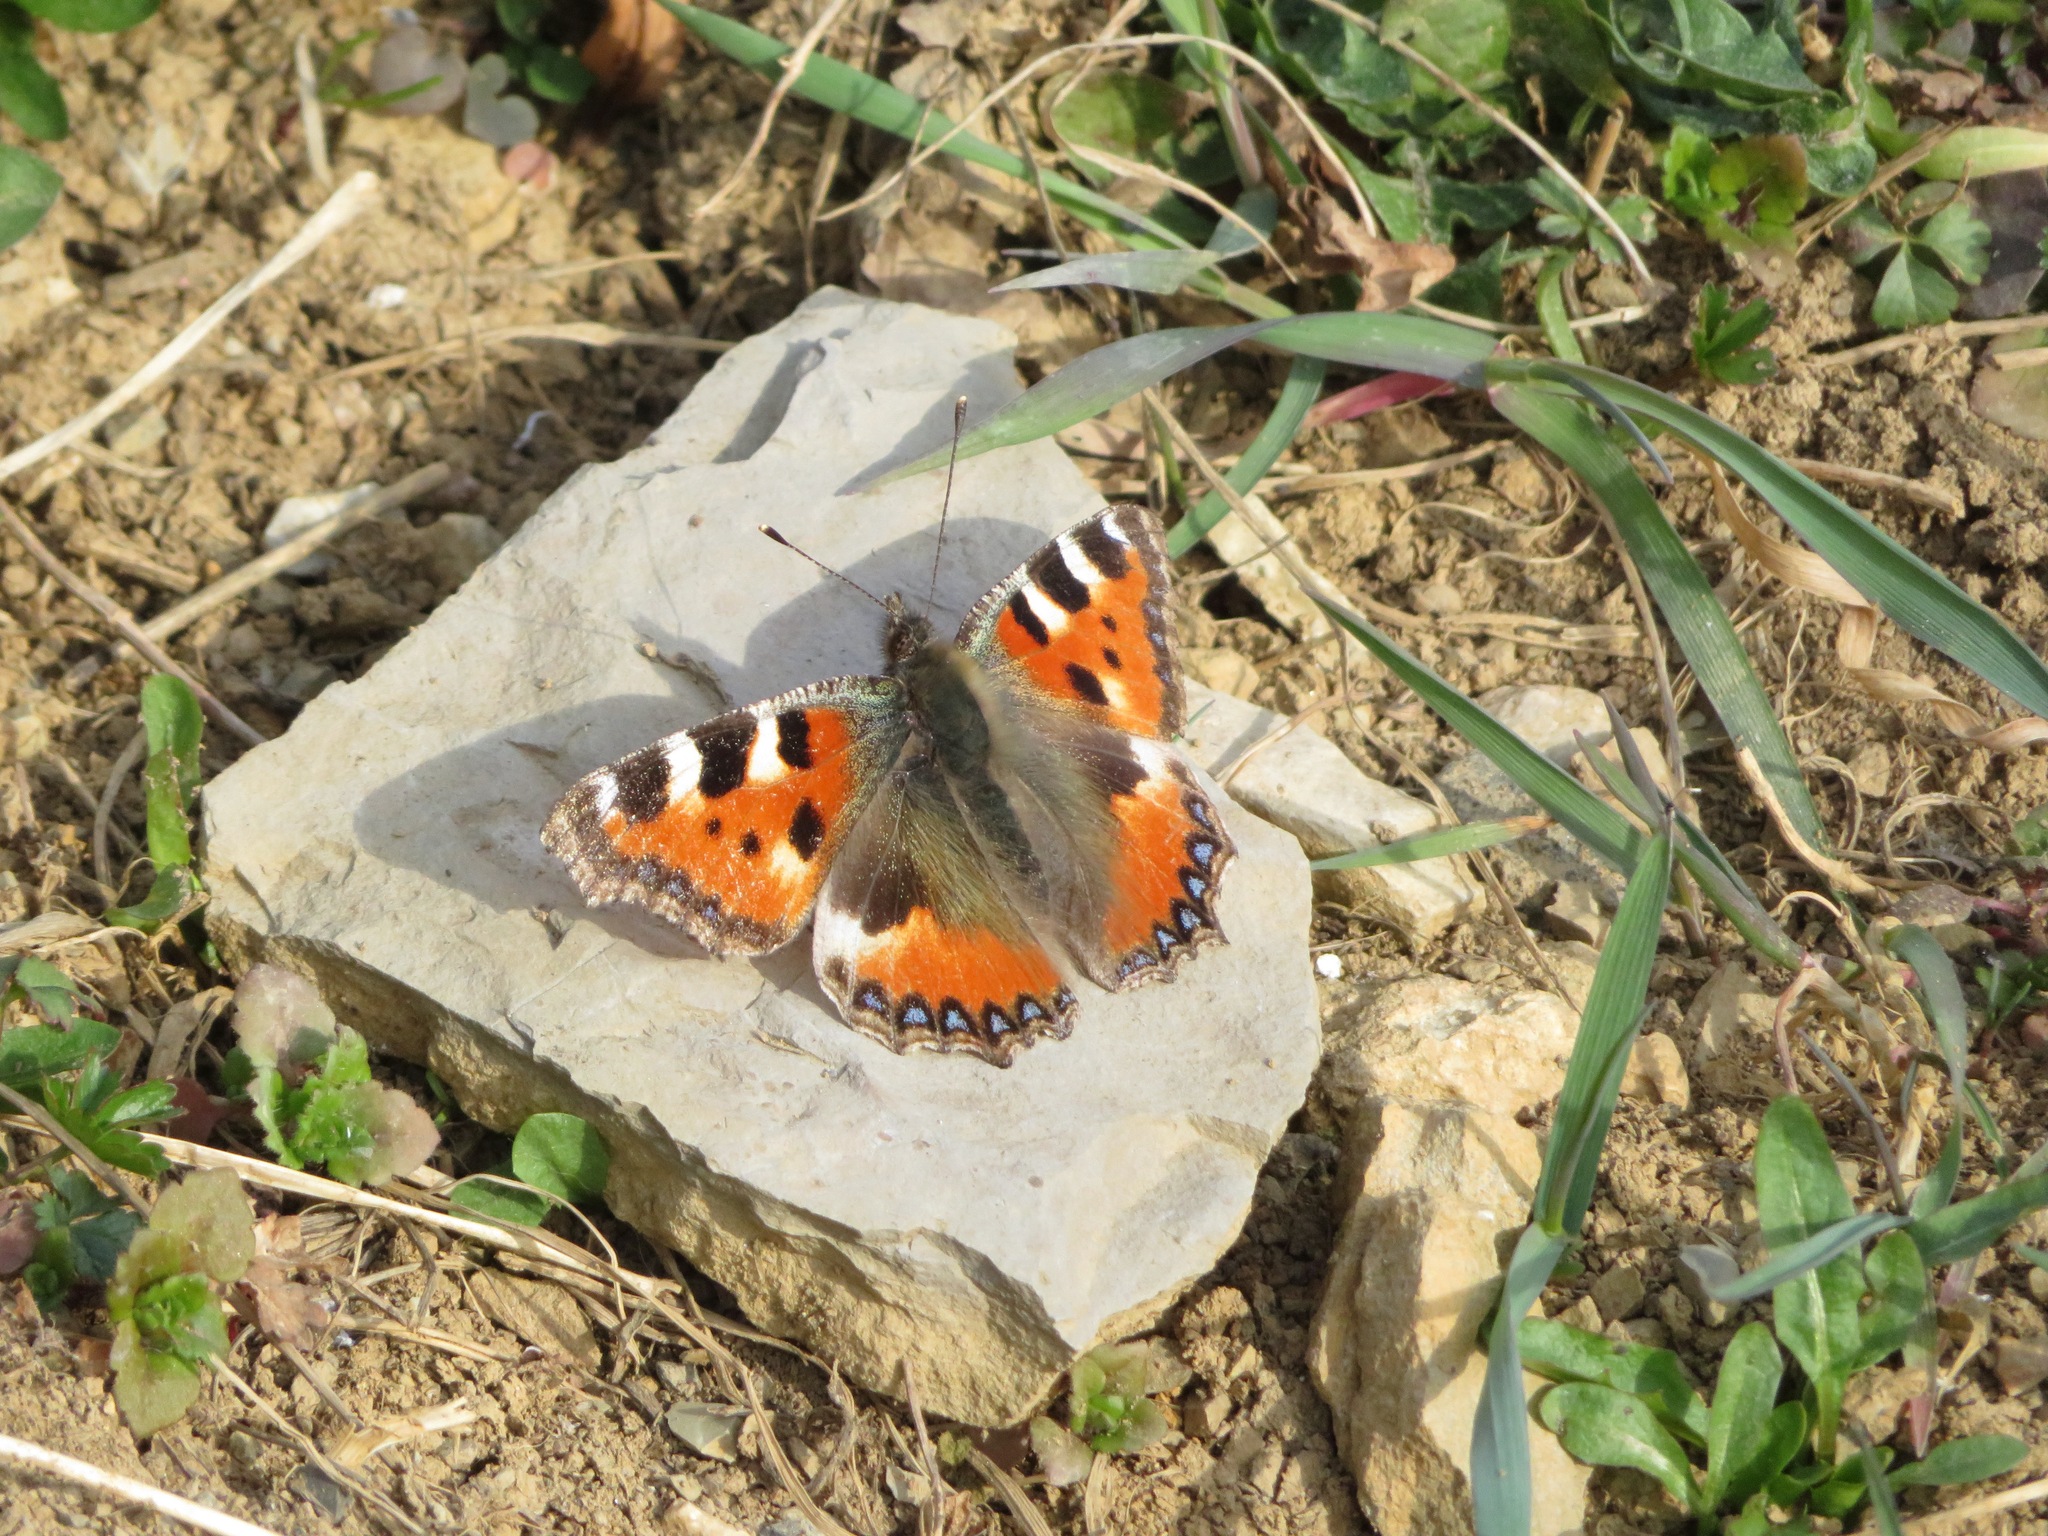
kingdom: Animalia
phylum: Arthropoda
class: Insecta
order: Lepidoptera
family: Nymphalidae
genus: Aglais
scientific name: Aglais urticae
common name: Small tortoiseshell
